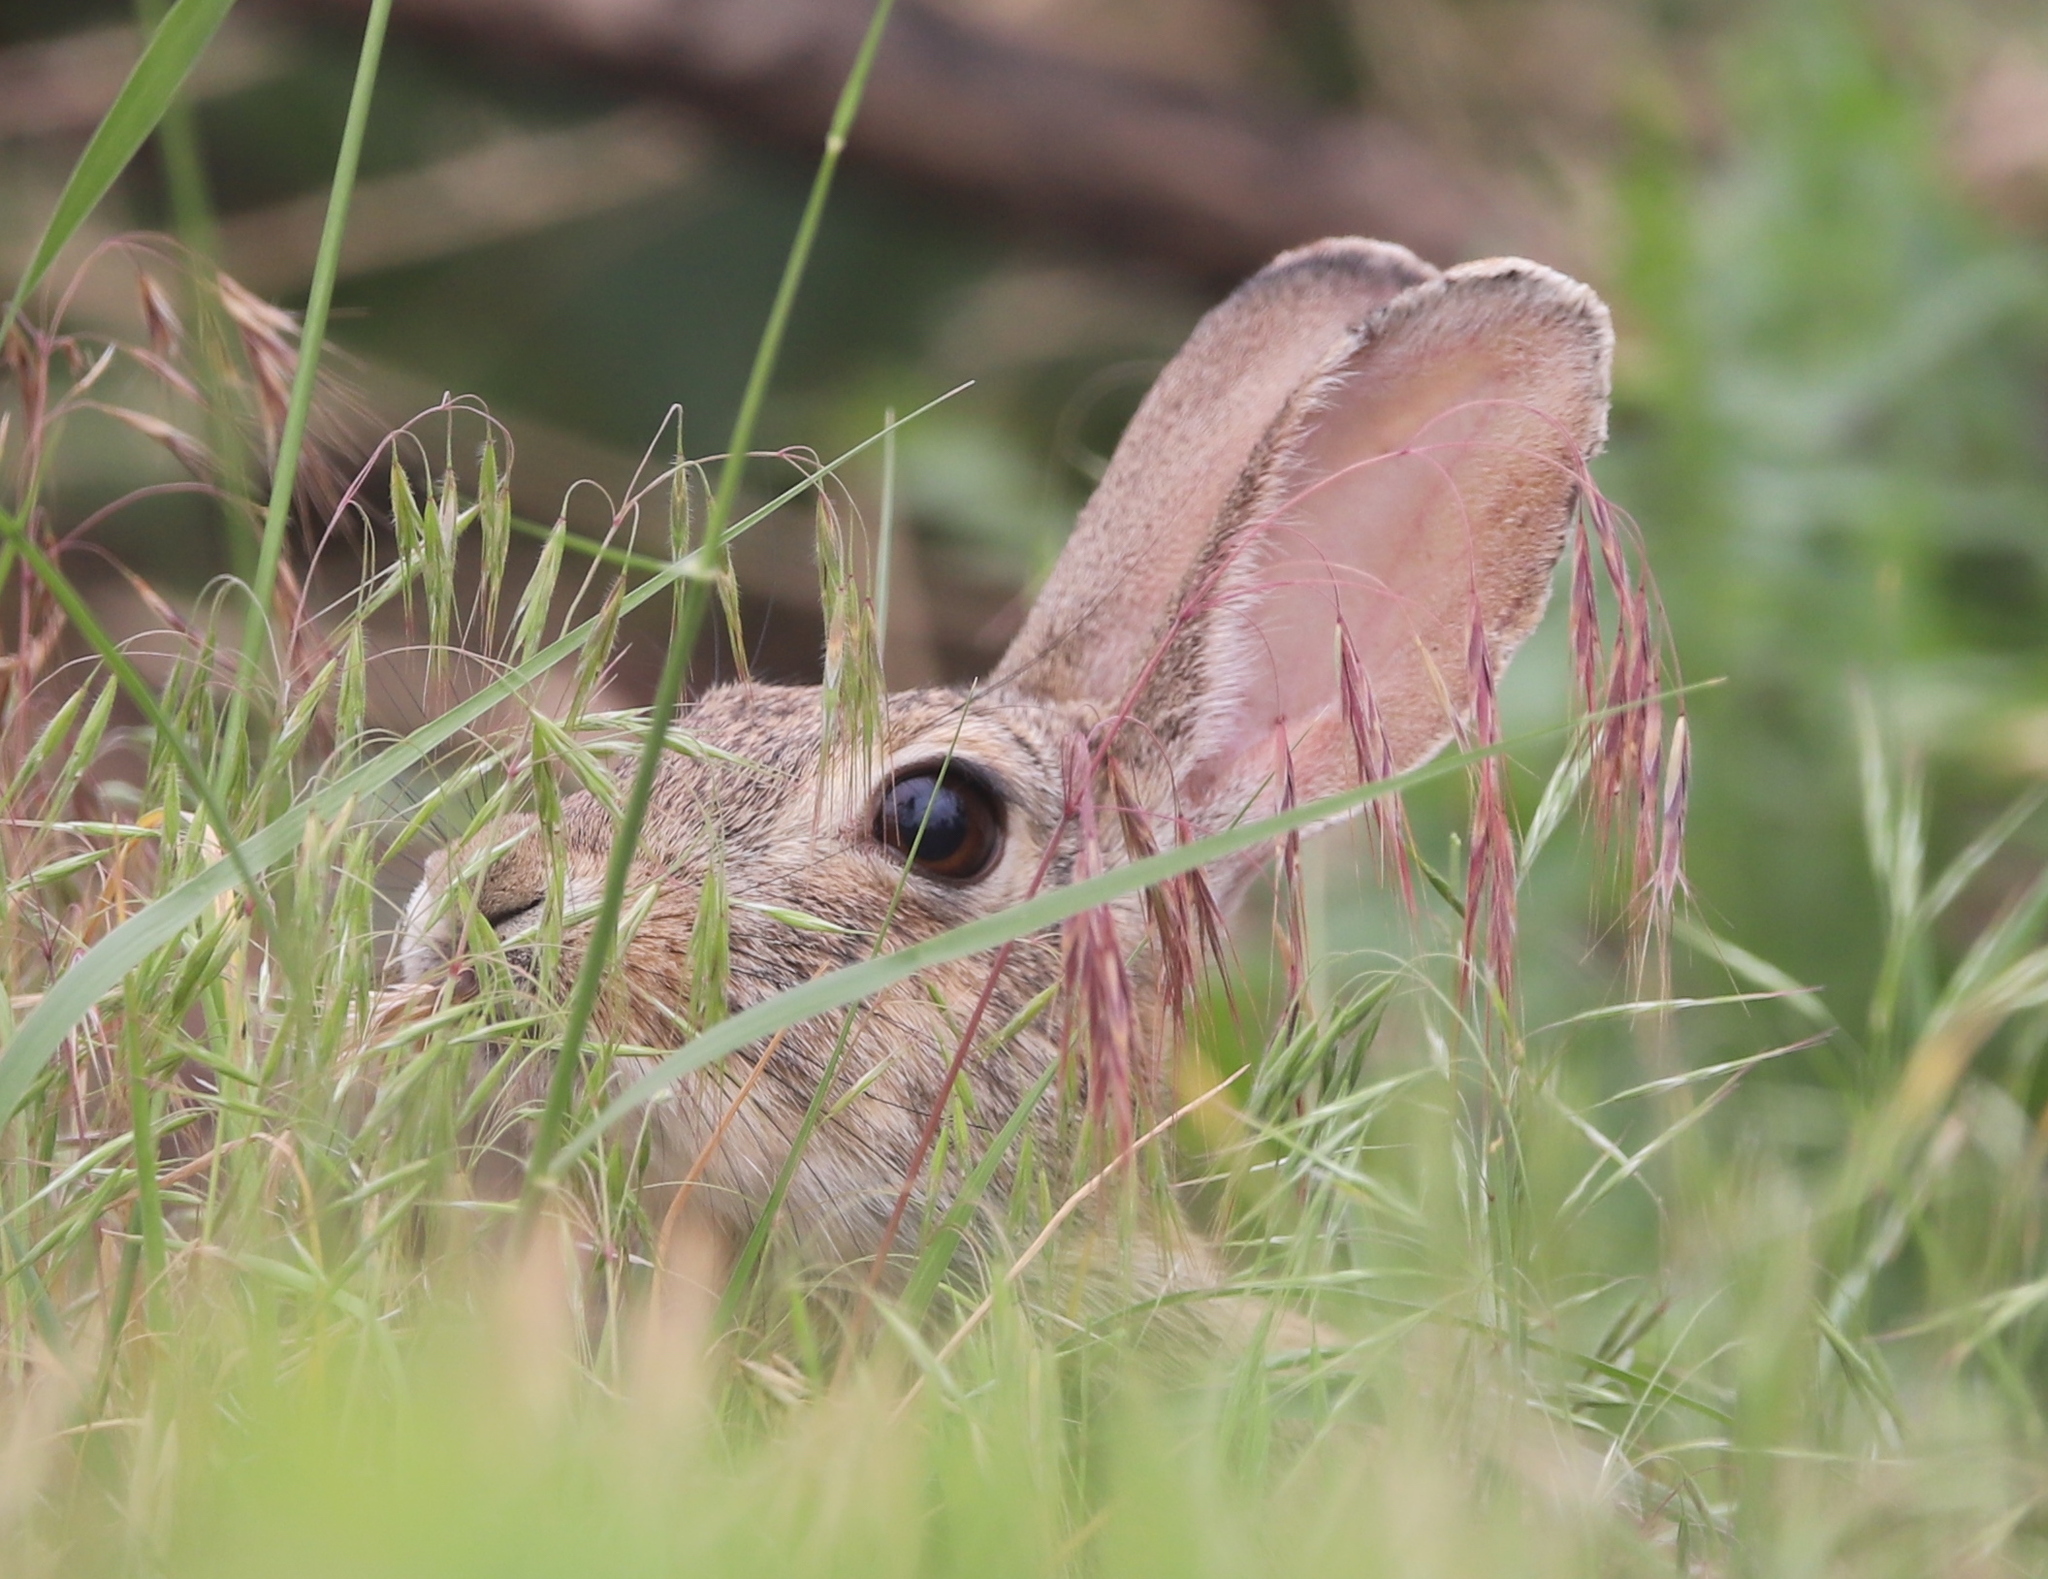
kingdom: Animalia
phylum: Chordata
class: Mammalia
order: Lagomorpha
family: Leporidae
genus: Lepus
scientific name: Lepus californicus
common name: Black-tailed jackrabbit
